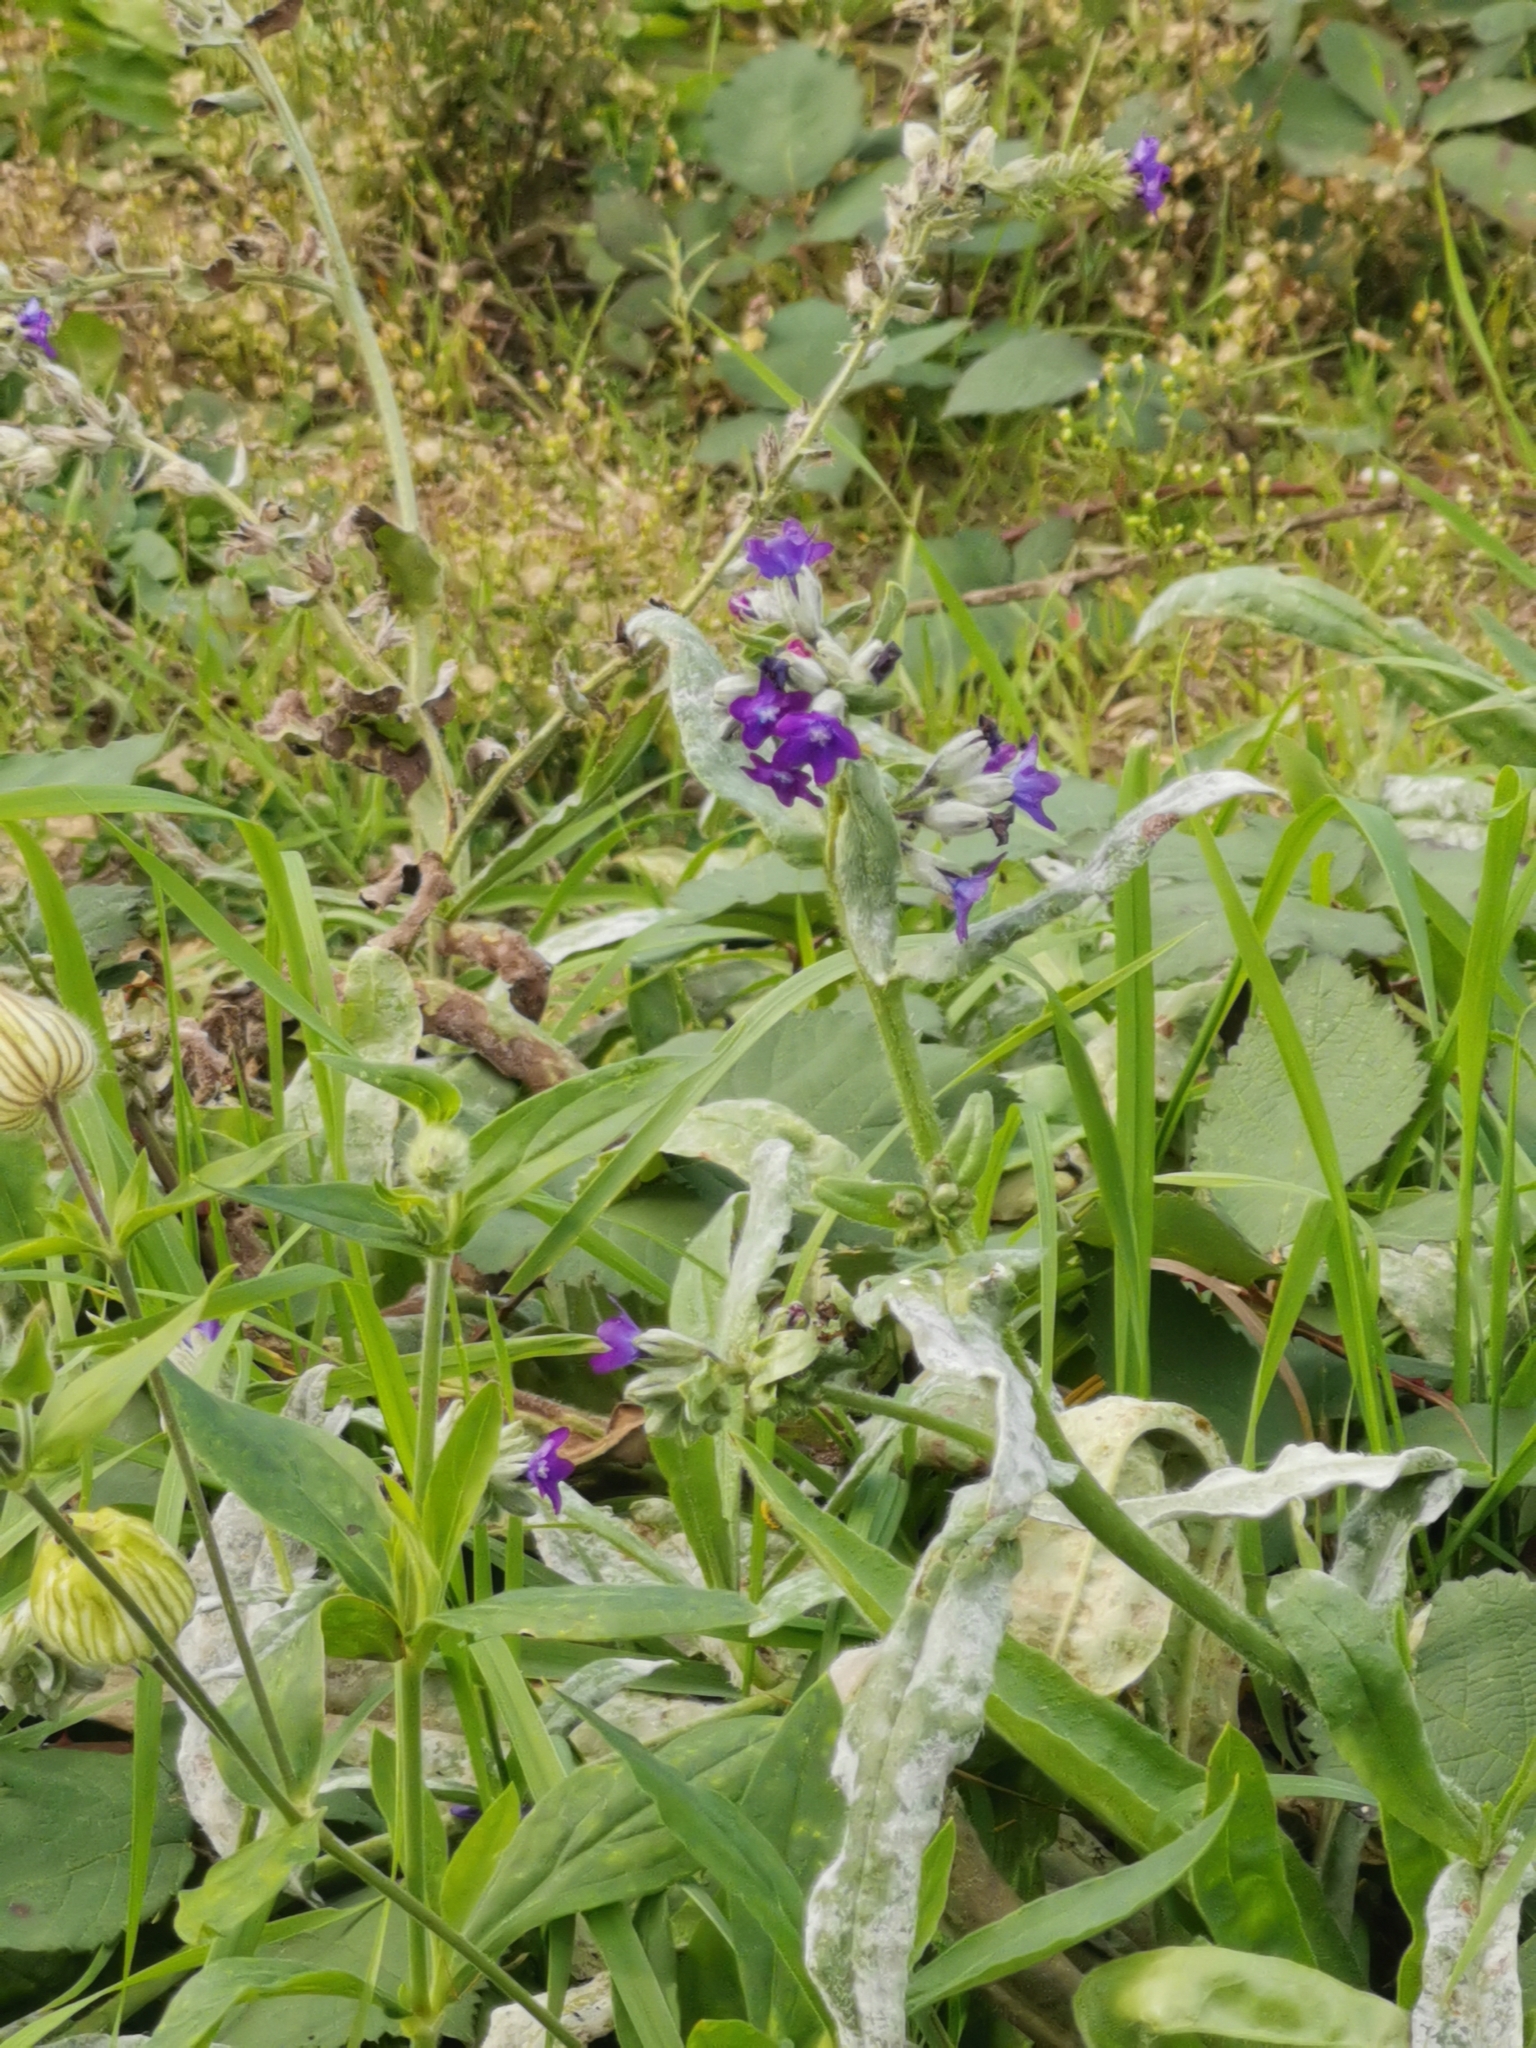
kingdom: Plantae
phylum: Tracheophyta
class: Magnoliopsida
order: Boraginales
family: Boraginaceae
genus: Anchusa
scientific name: Anchusa officinalis
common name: Alkanet
